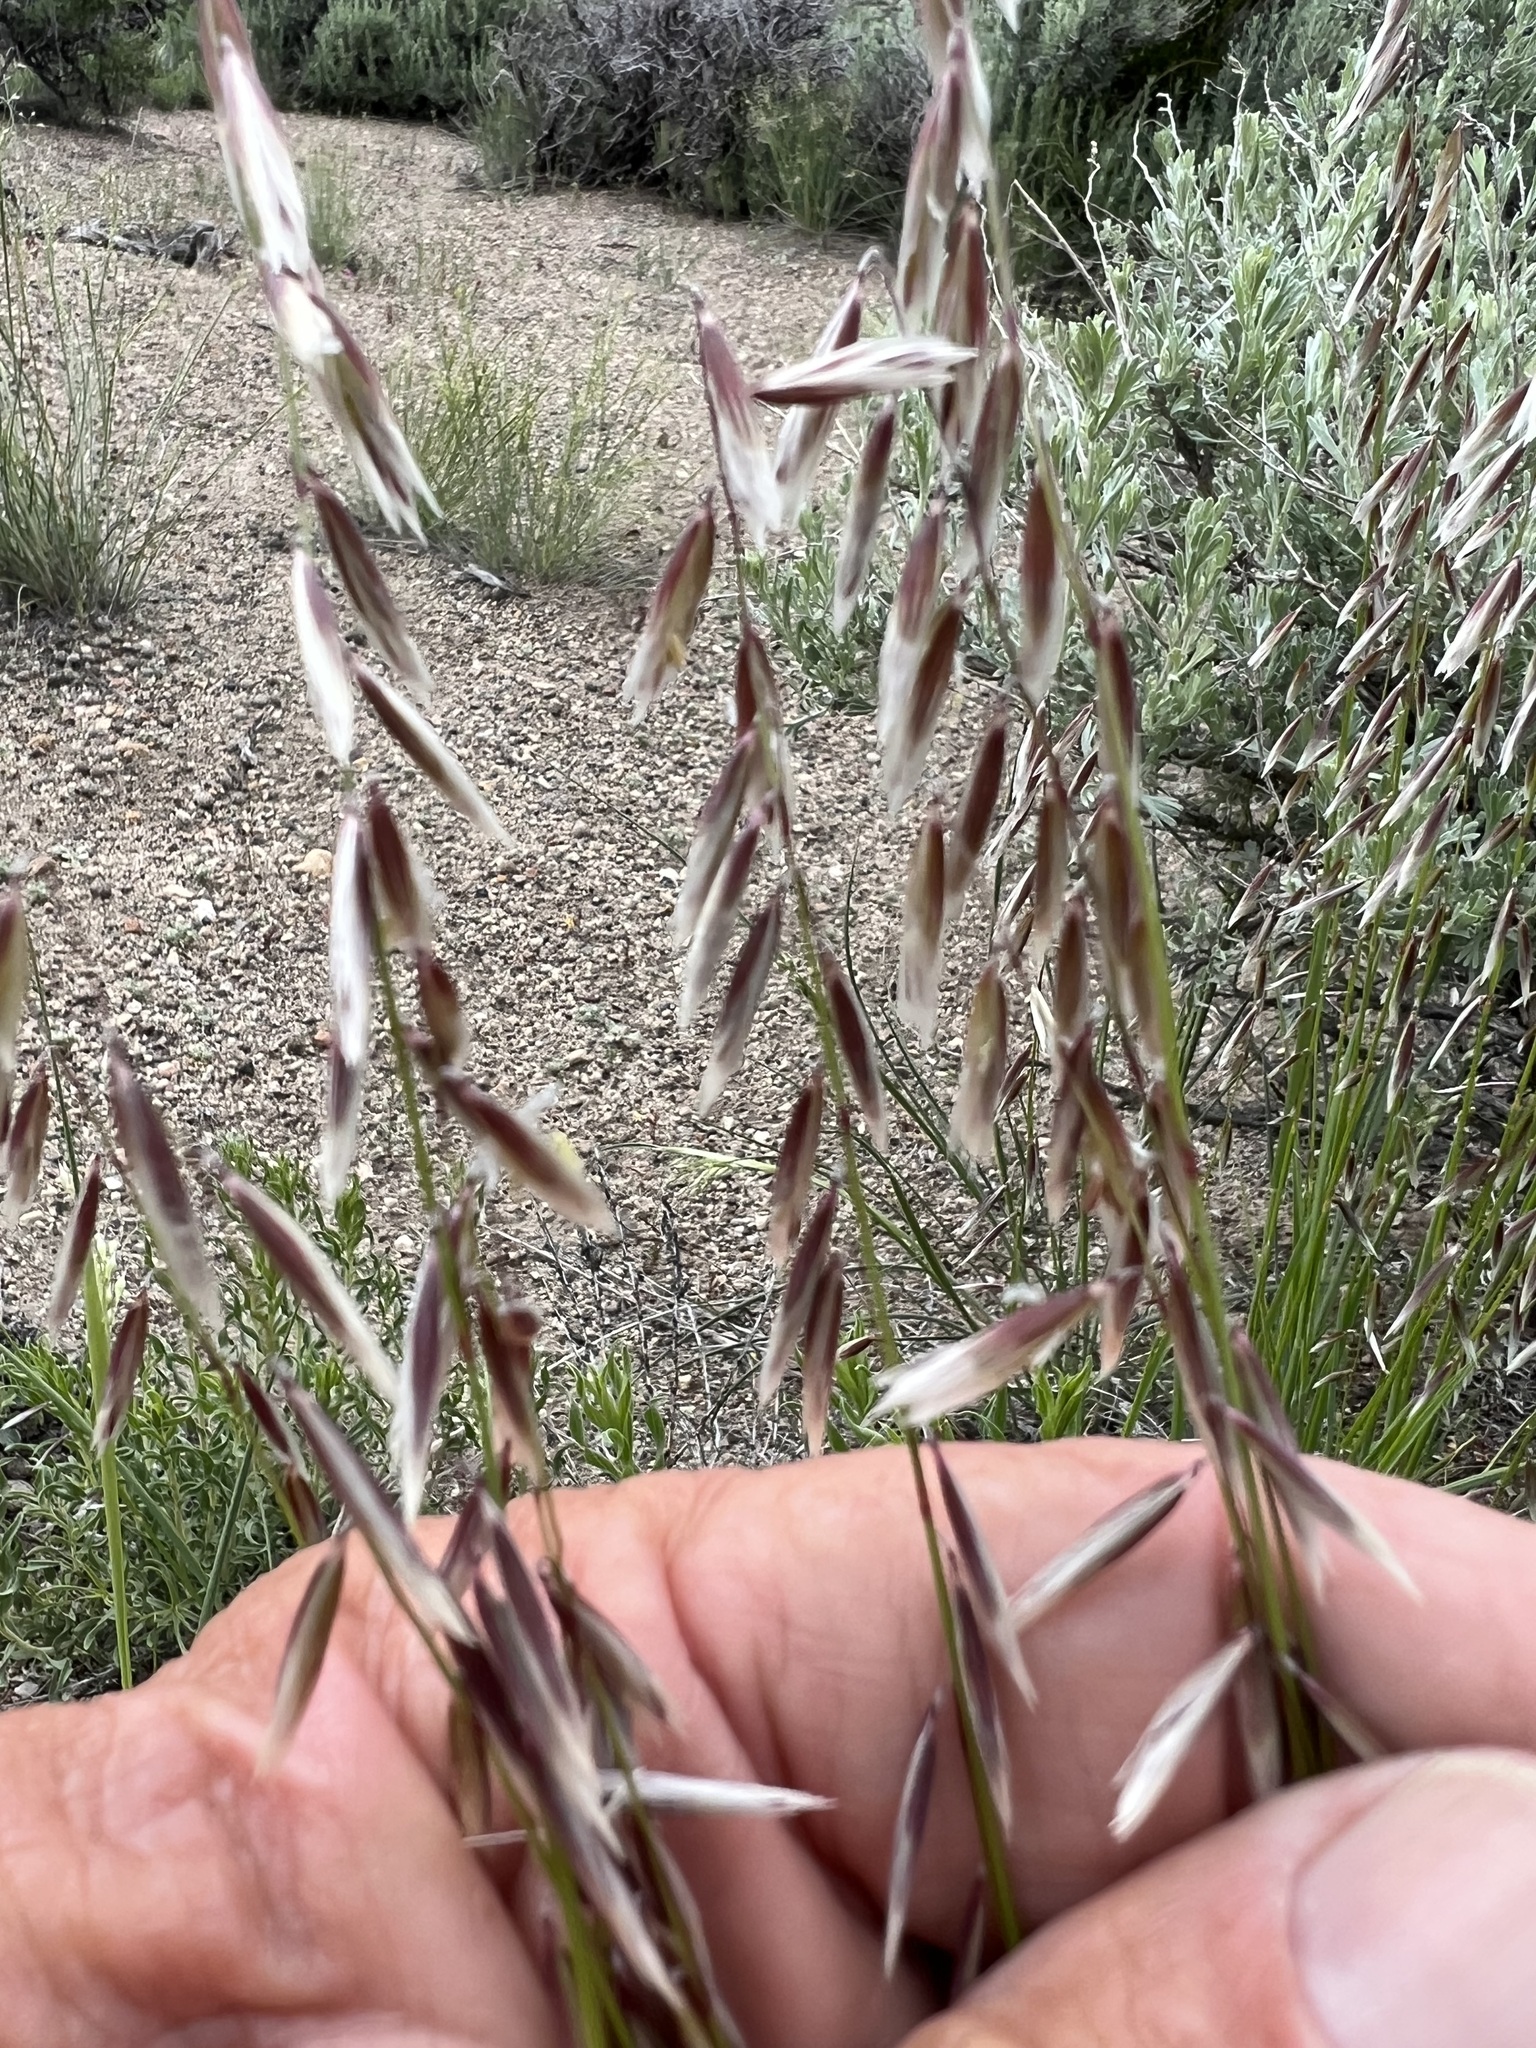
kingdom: Plantae
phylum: Tracheophyta
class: Liliopsida
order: Poales
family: Poaceae
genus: Melica
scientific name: Melica stricta
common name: Rock melic
